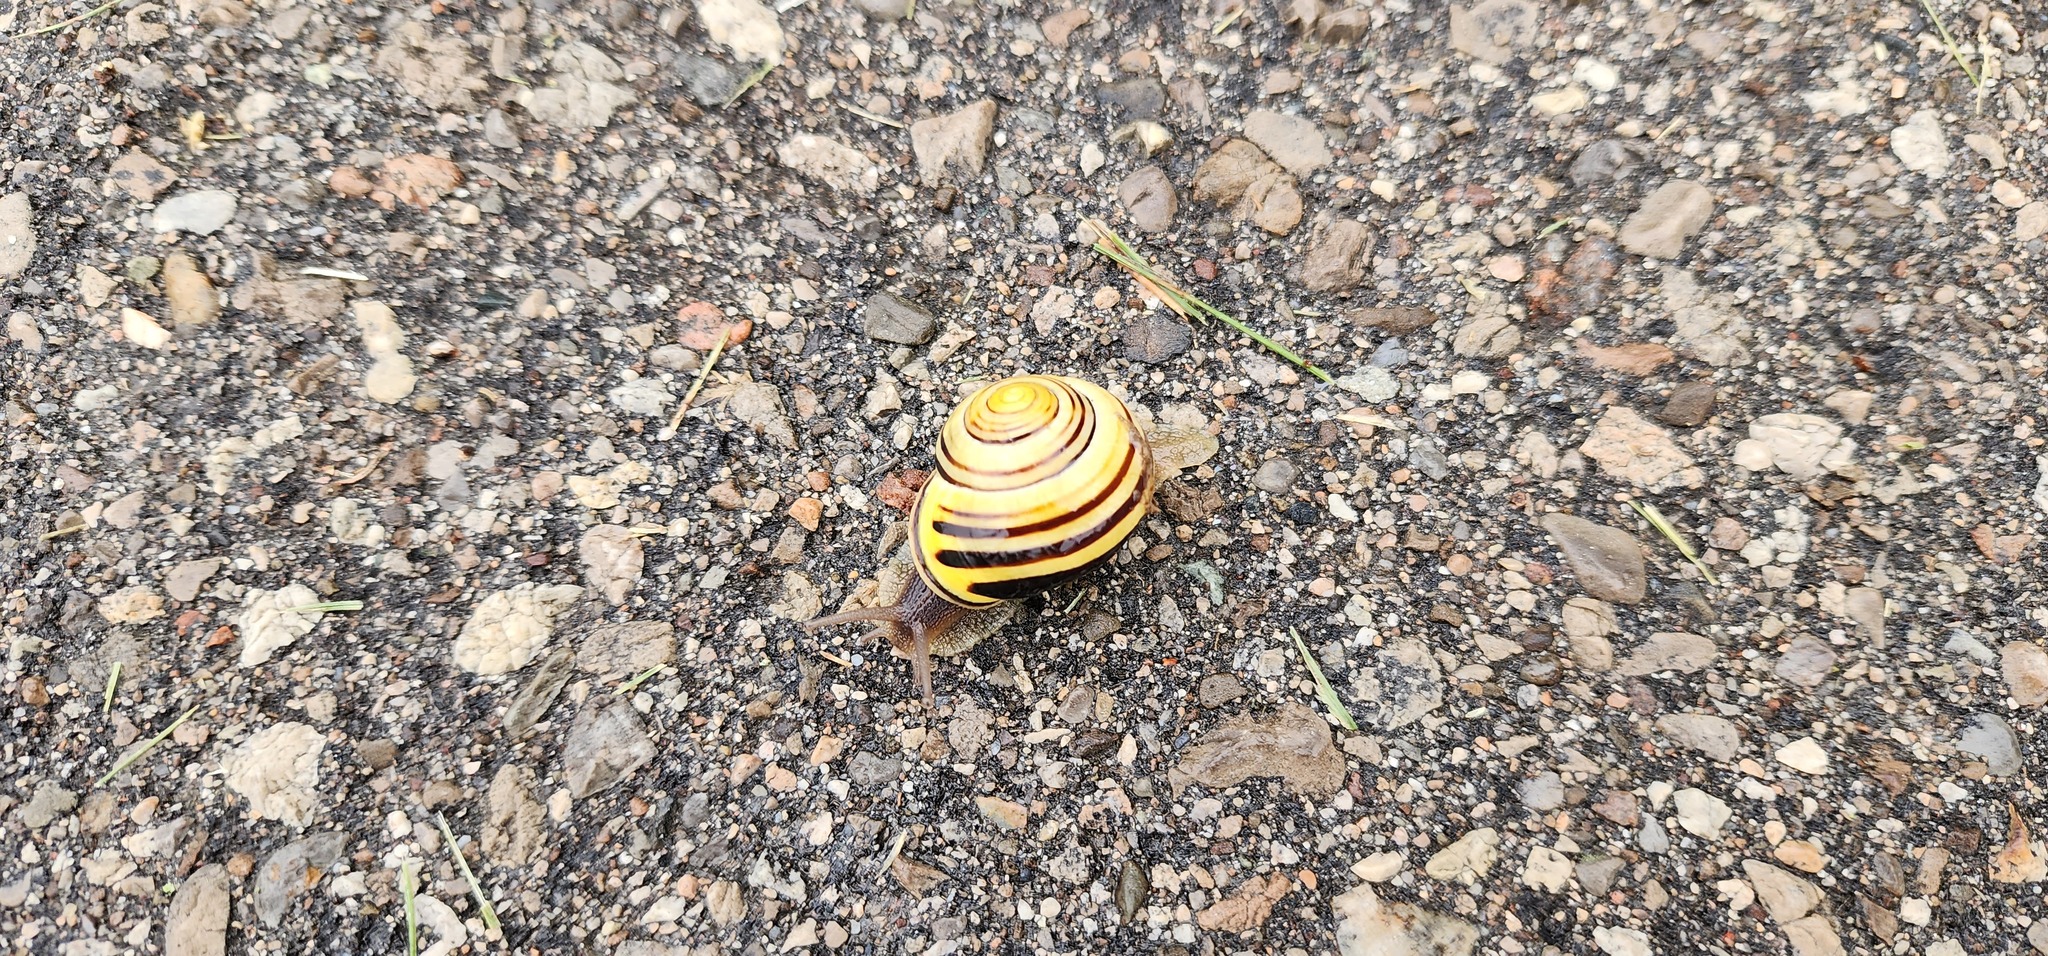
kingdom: Animalia
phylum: Mollusca
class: Gastropoda
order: Stylommatophora
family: Helicidae
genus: Cepaea
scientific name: Cepaea nemoralis
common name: Grovesnail
